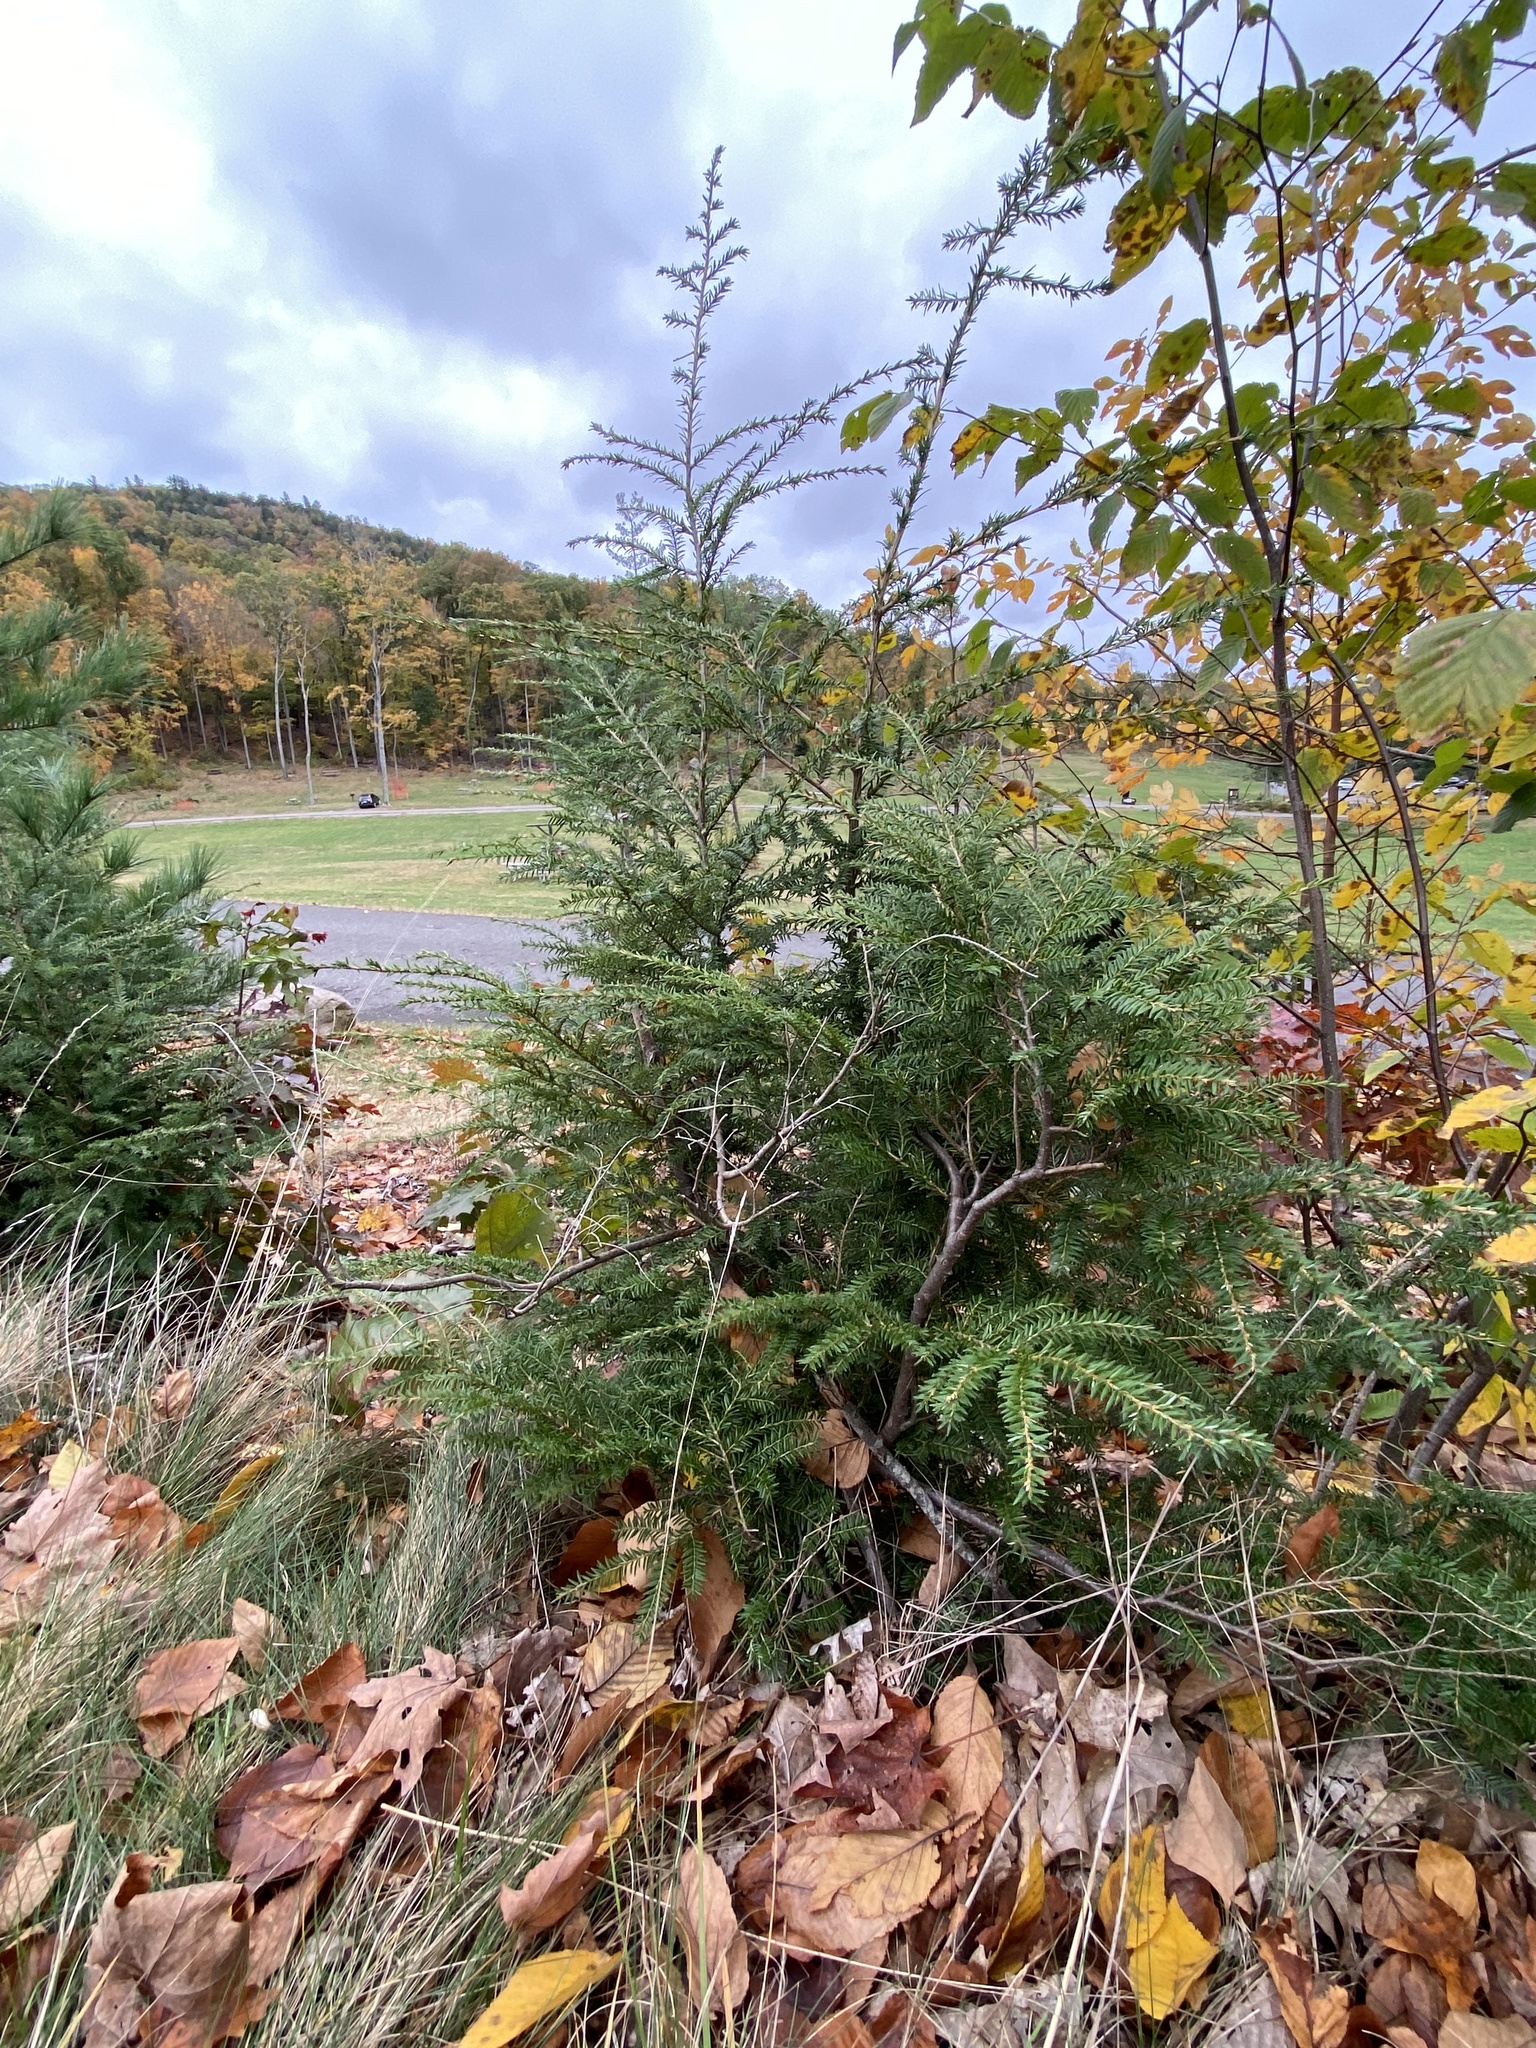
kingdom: Plantae
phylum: Tracheophyta
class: Pinopsida
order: Pinales
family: Pinaceae
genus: Tsuga
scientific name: Tsuga canadensis
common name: Eastern hemlock
